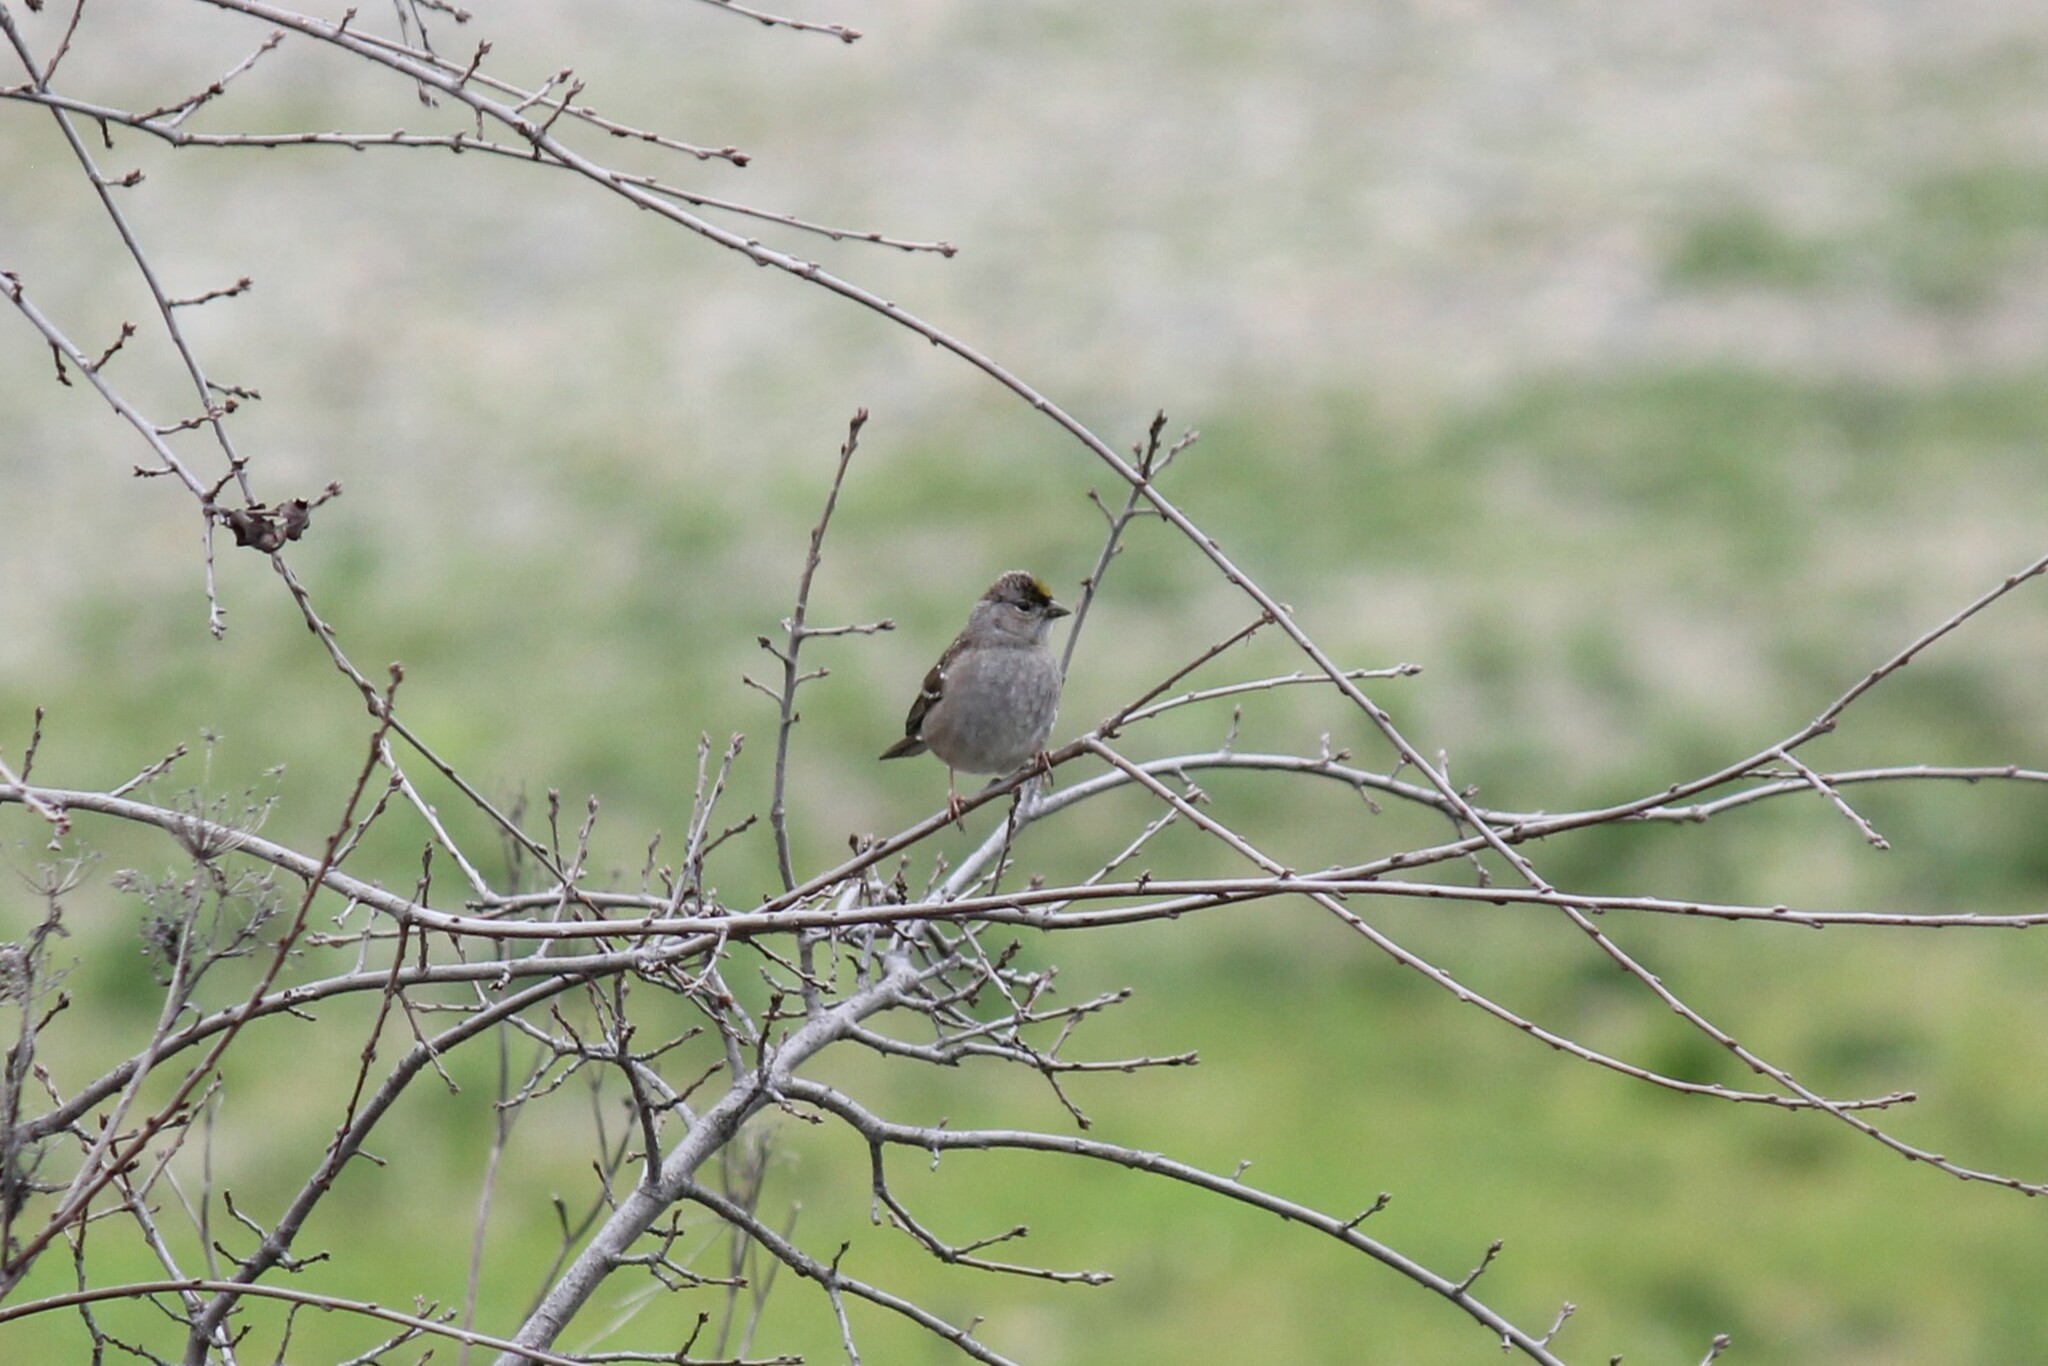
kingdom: Animalia
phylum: Chordata
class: Aves
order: Passeriformes
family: Passerellidae
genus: Zonotrichia
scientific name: Zonotrichia atricapilla
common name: Golden-crowned sparrow
